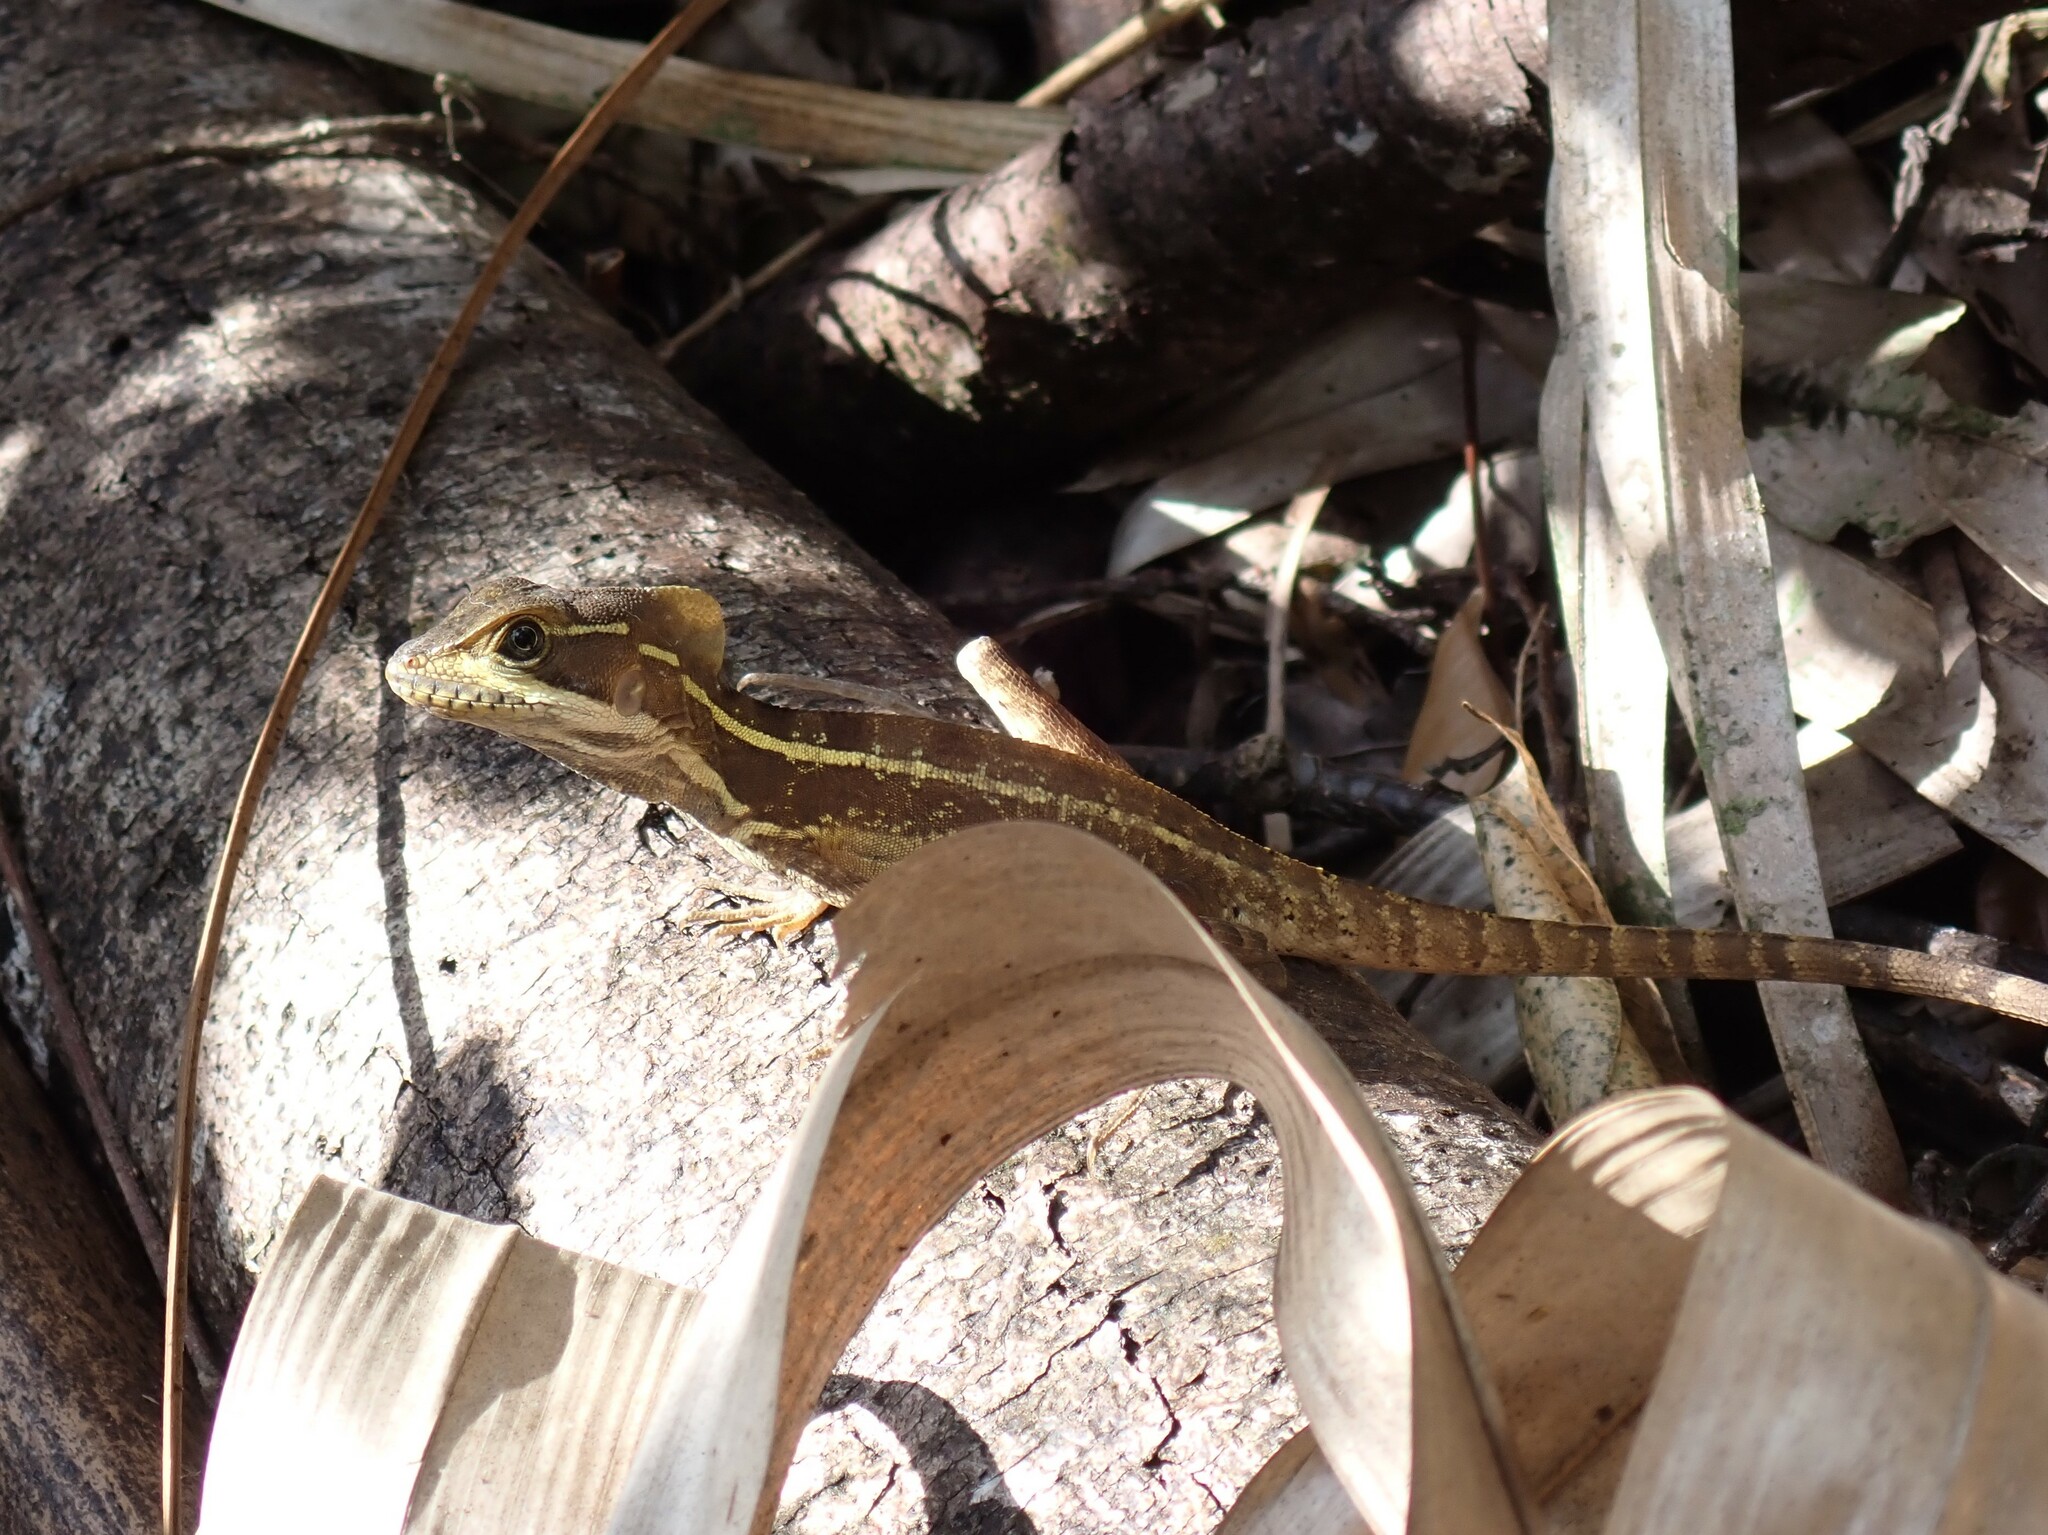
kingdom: Animalia
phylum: Chordata
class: Squamata
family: Corytophanidae
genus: Basiliscus
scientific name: Basiliscus vittatus
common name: Brown basilisk
